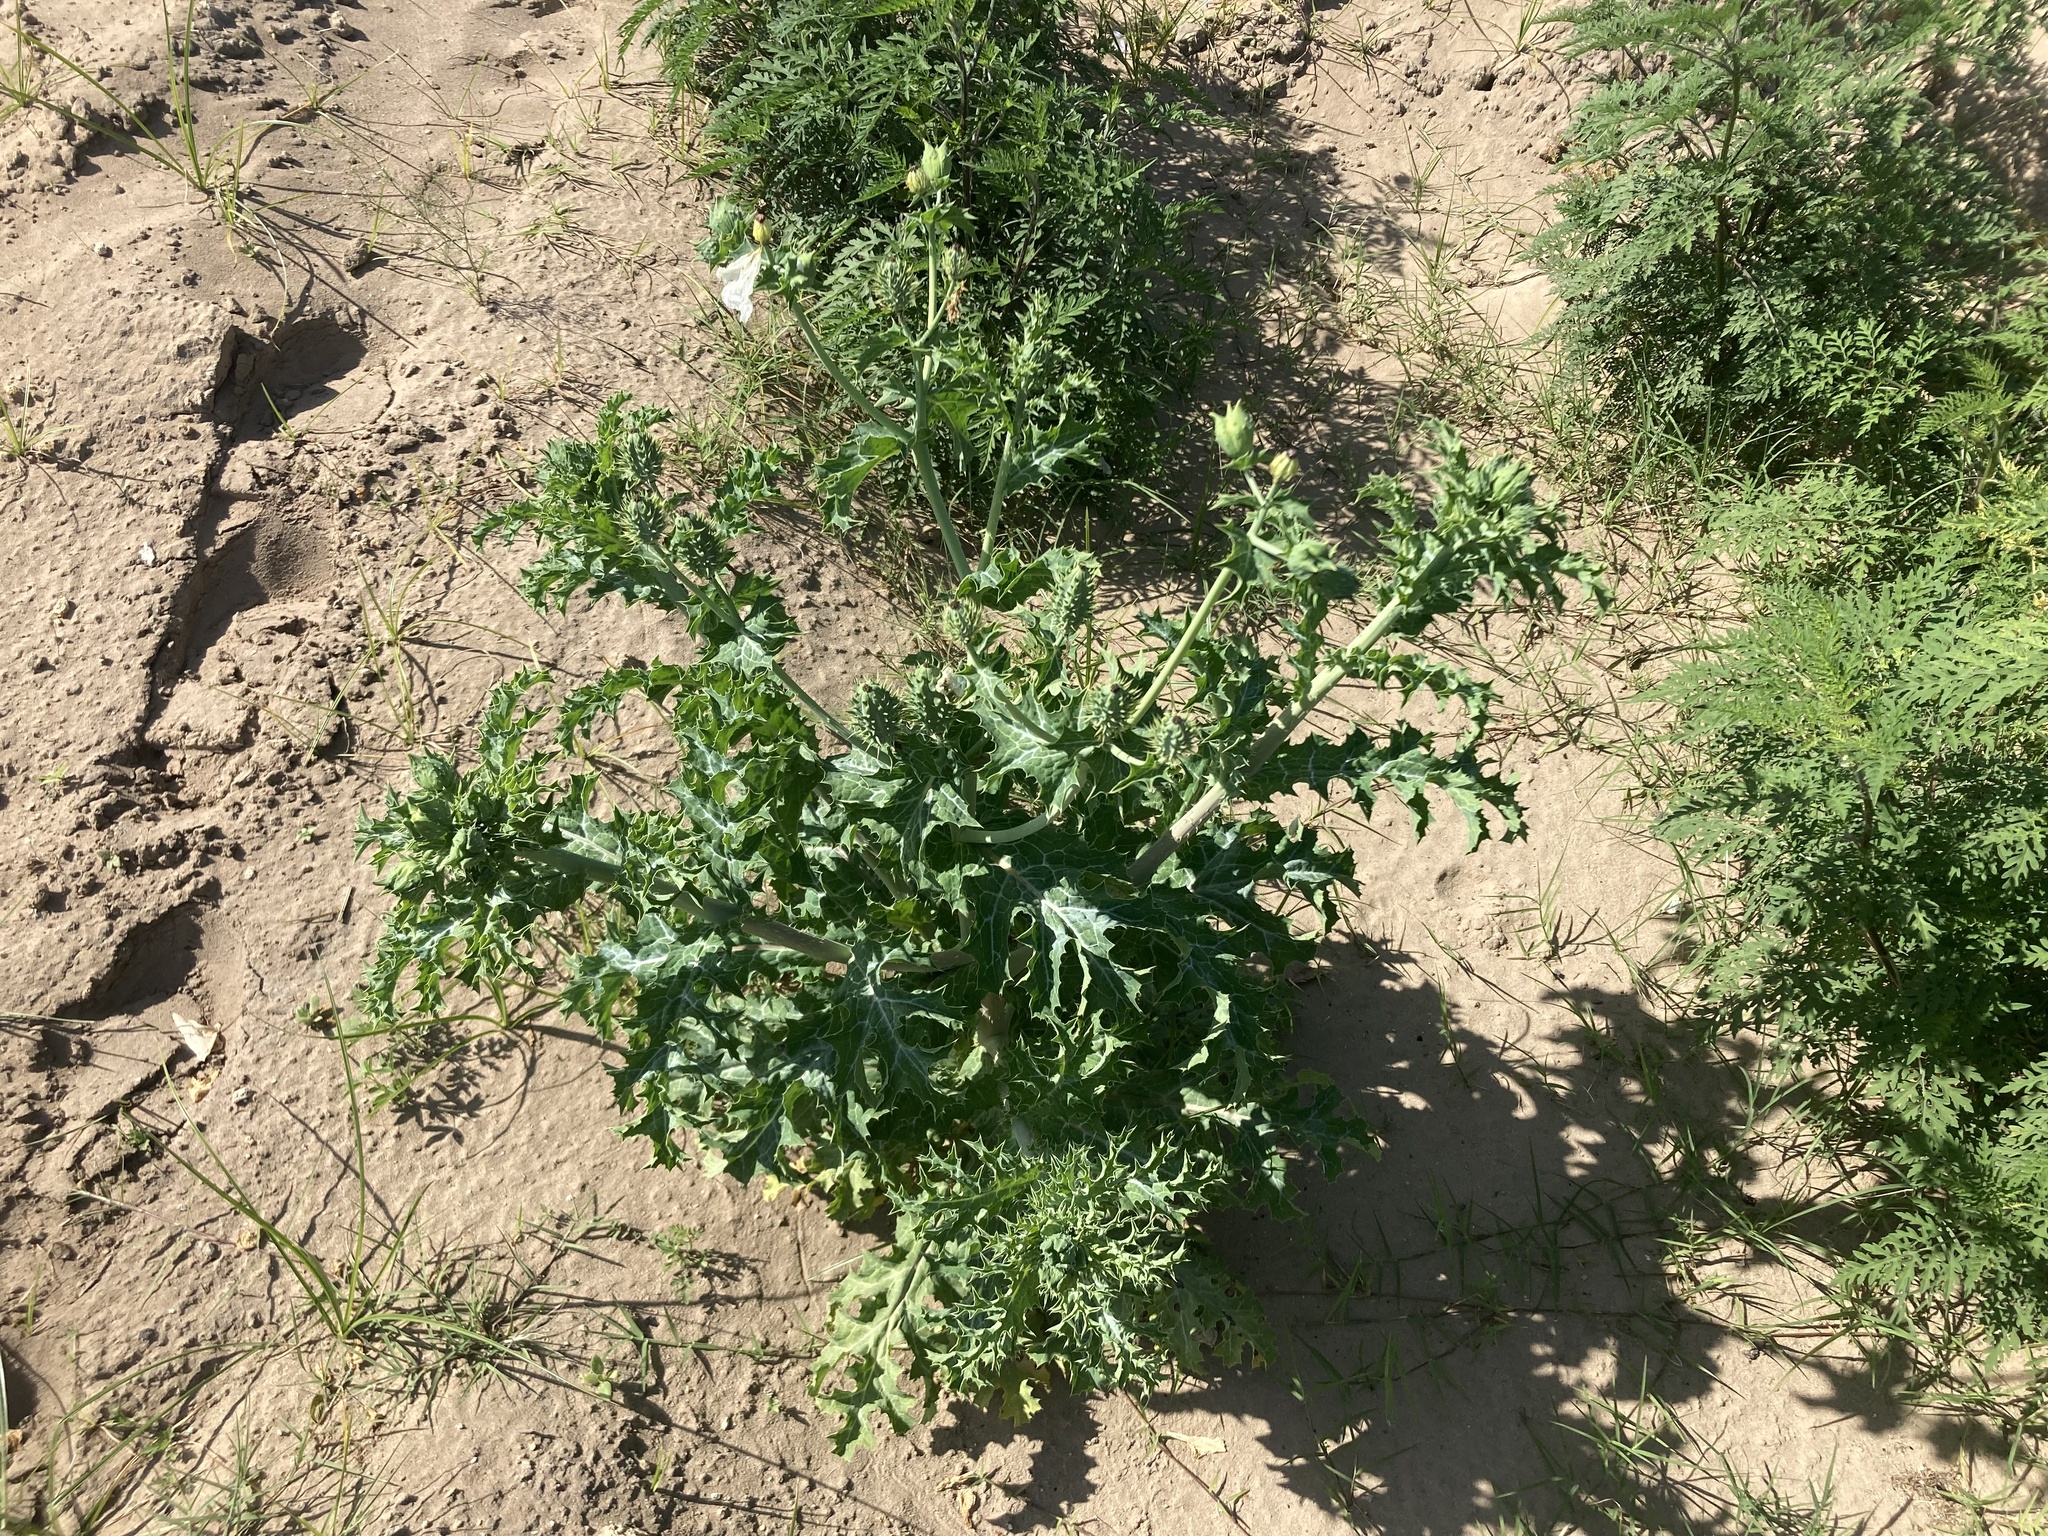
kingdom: Plantae
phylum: Tracheophyta
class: Magnoliopsida
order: Ranunculales
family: Papaveraceae
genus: Argemone
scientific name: Argemone albiflora
